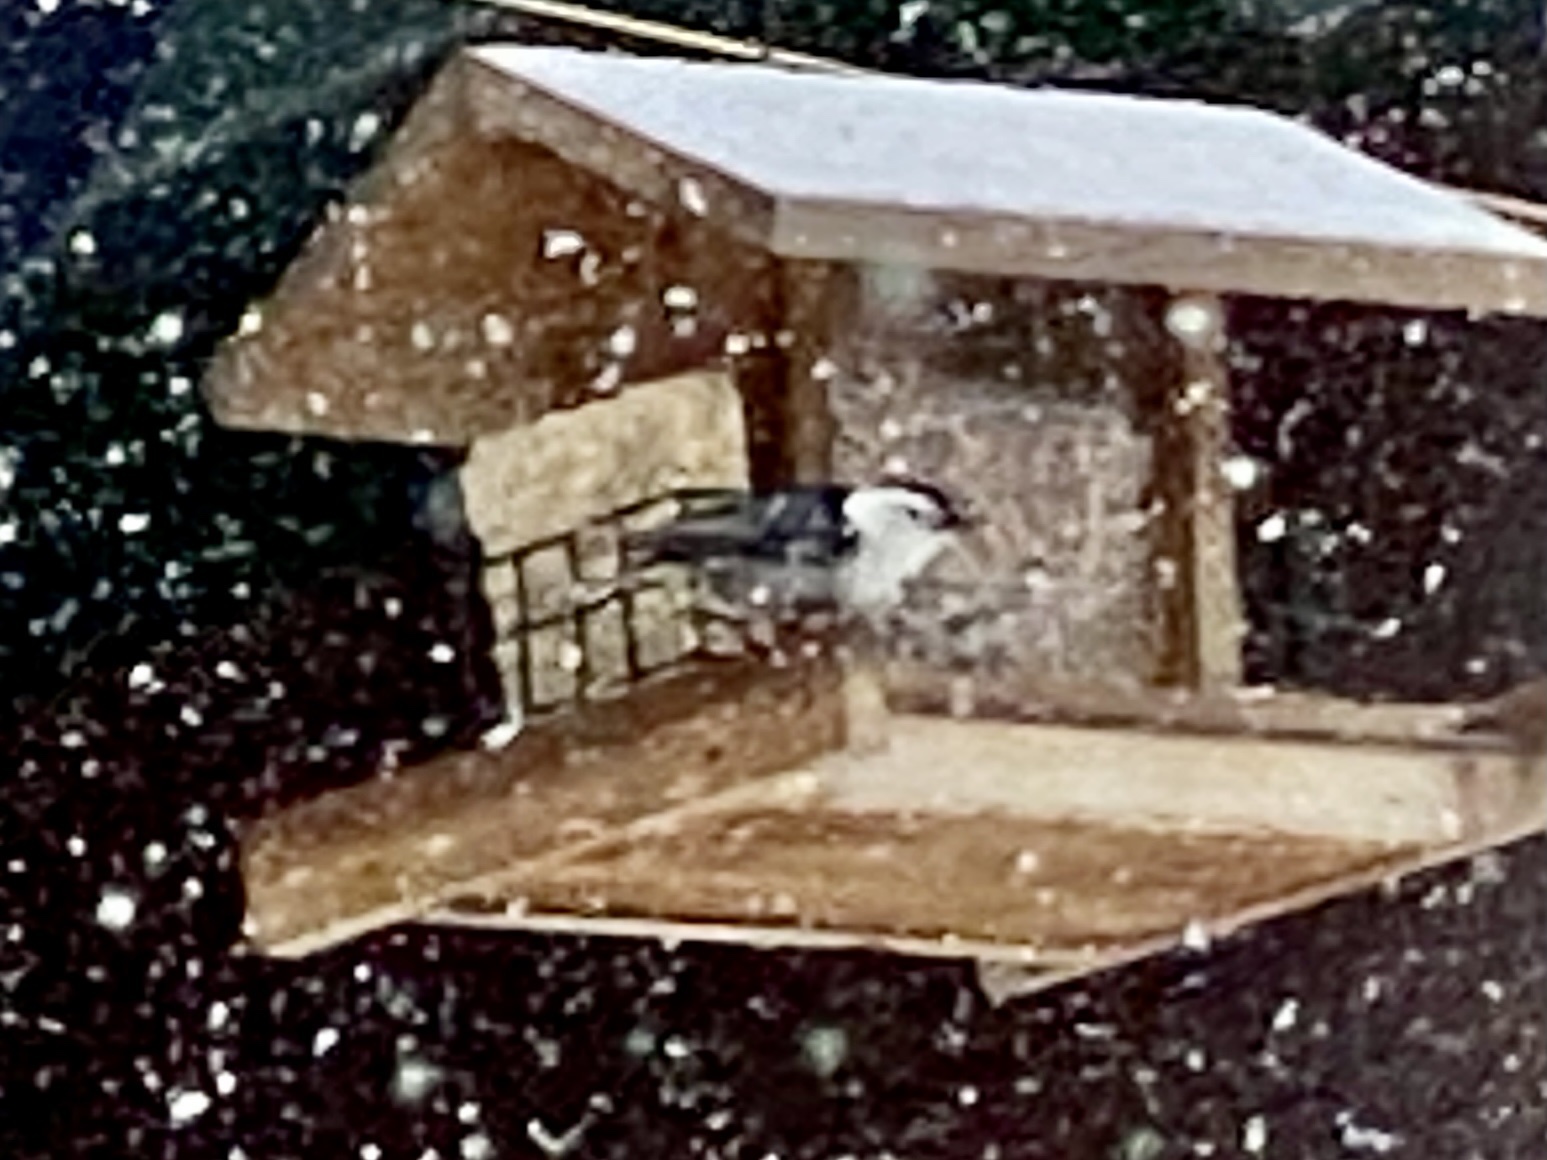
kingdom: Animalia
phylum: Chordata
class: Aves
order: Passeriformes
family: Sittidae
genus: Sitta
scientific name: Sitta carolinensis
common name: White-breasted nuthatch
